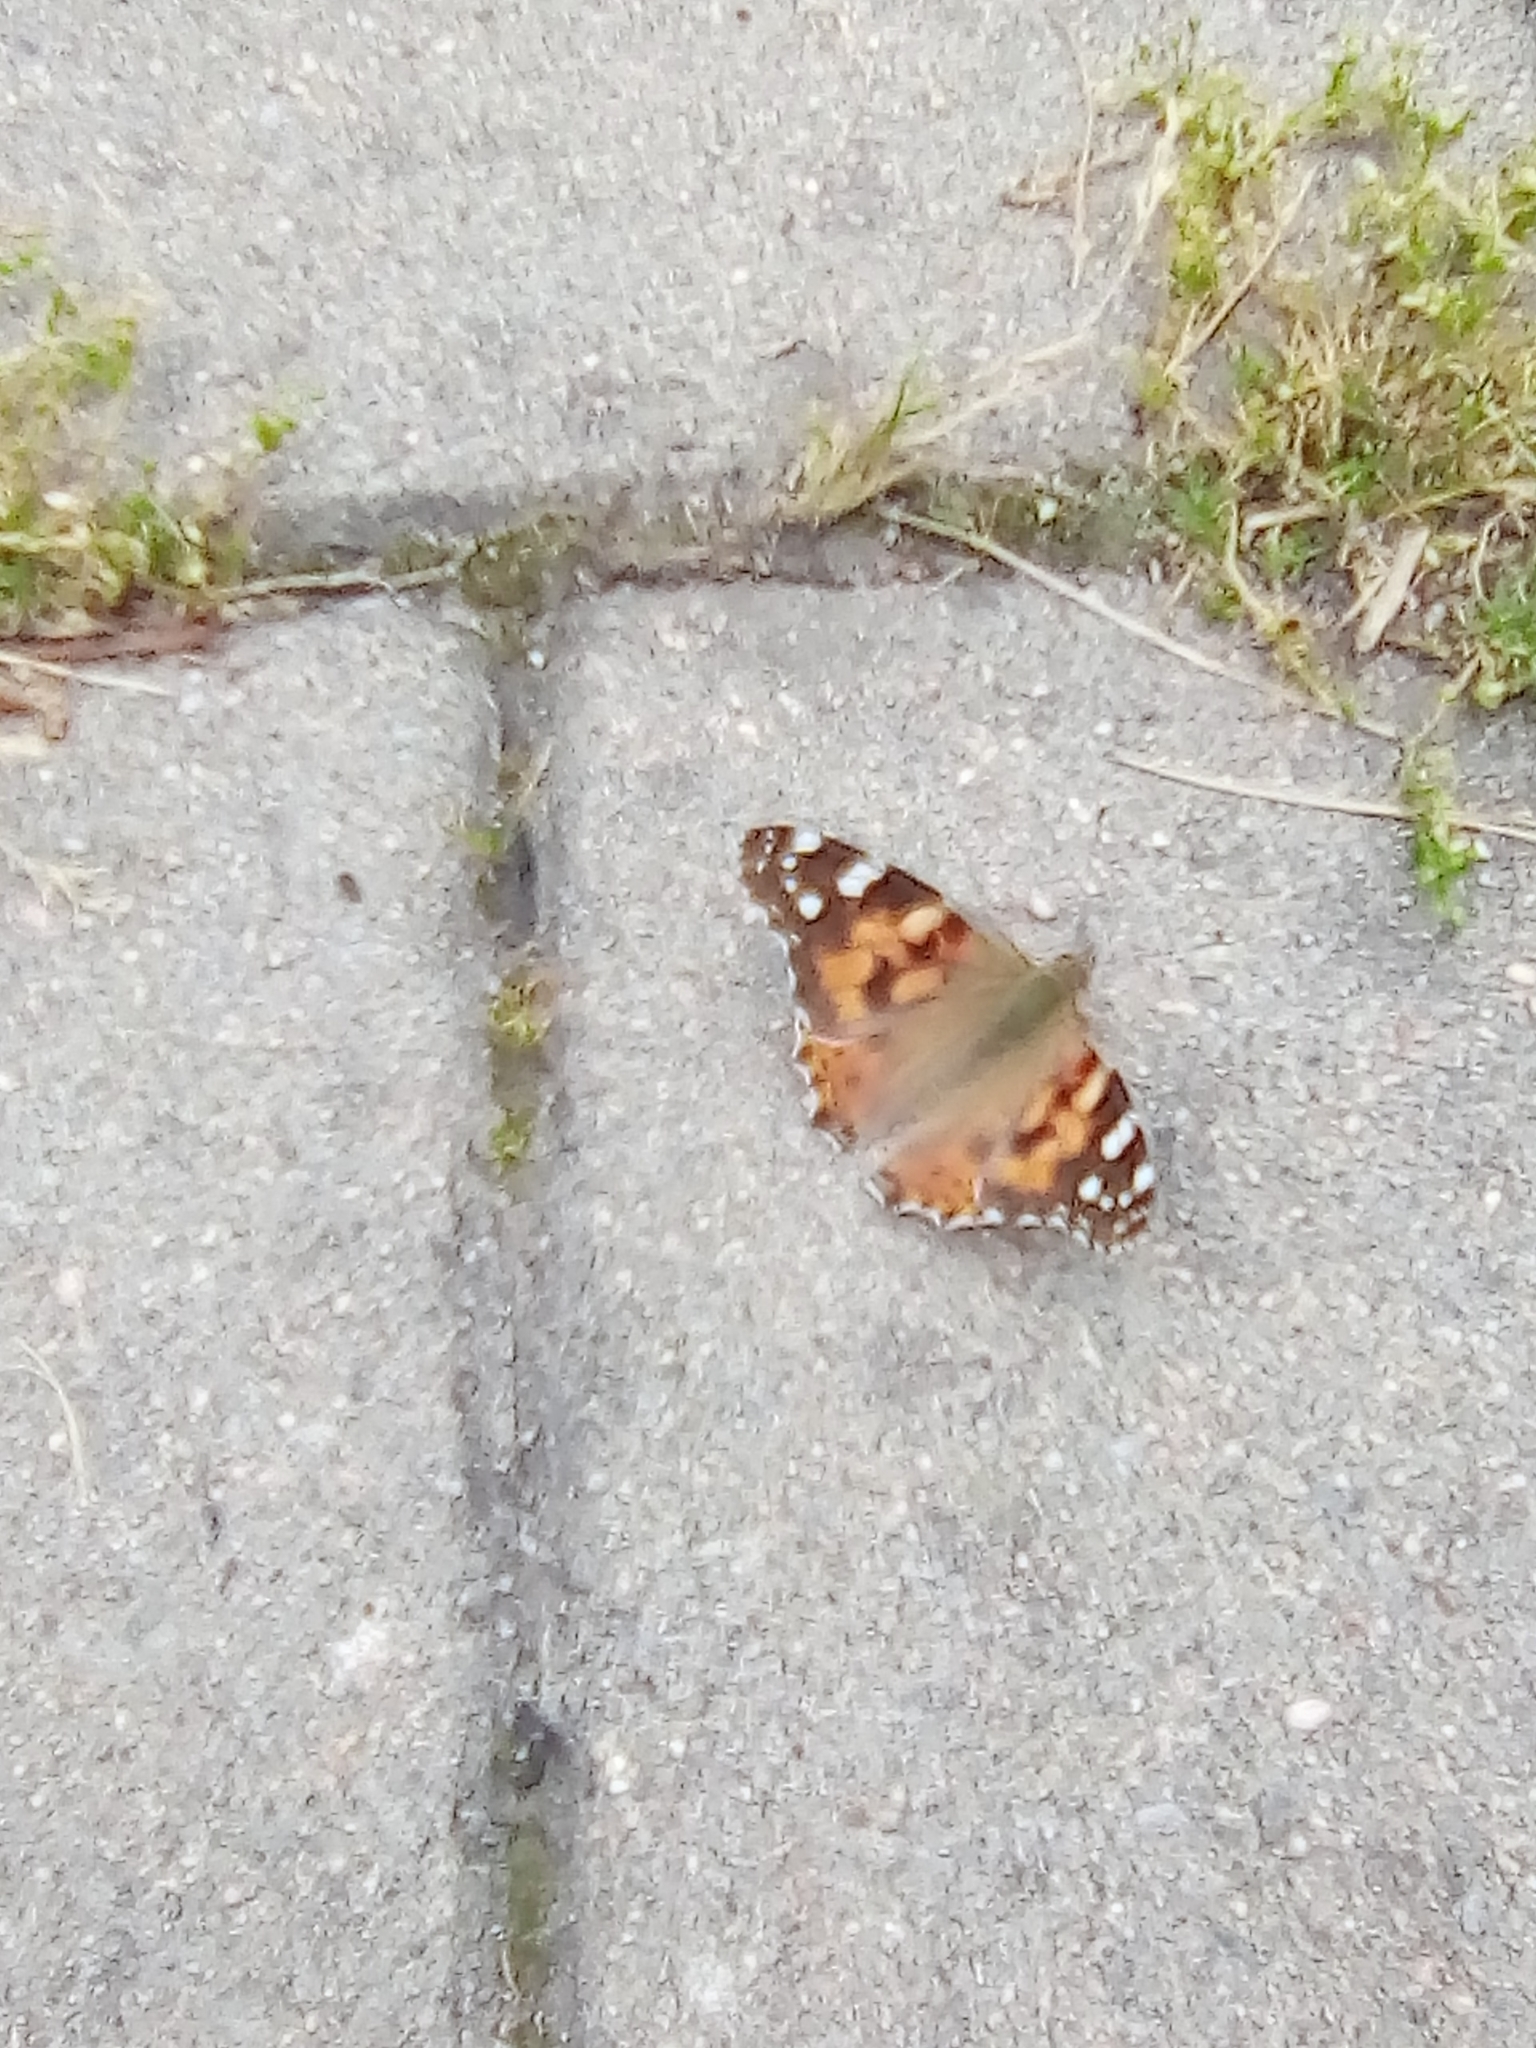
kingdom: Animalia
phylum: Arthropoda
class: Insecta
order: Lepidoptera
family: Nymphalidae
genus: Vanessa
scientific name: Vanessa cardui
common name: Painted lady
